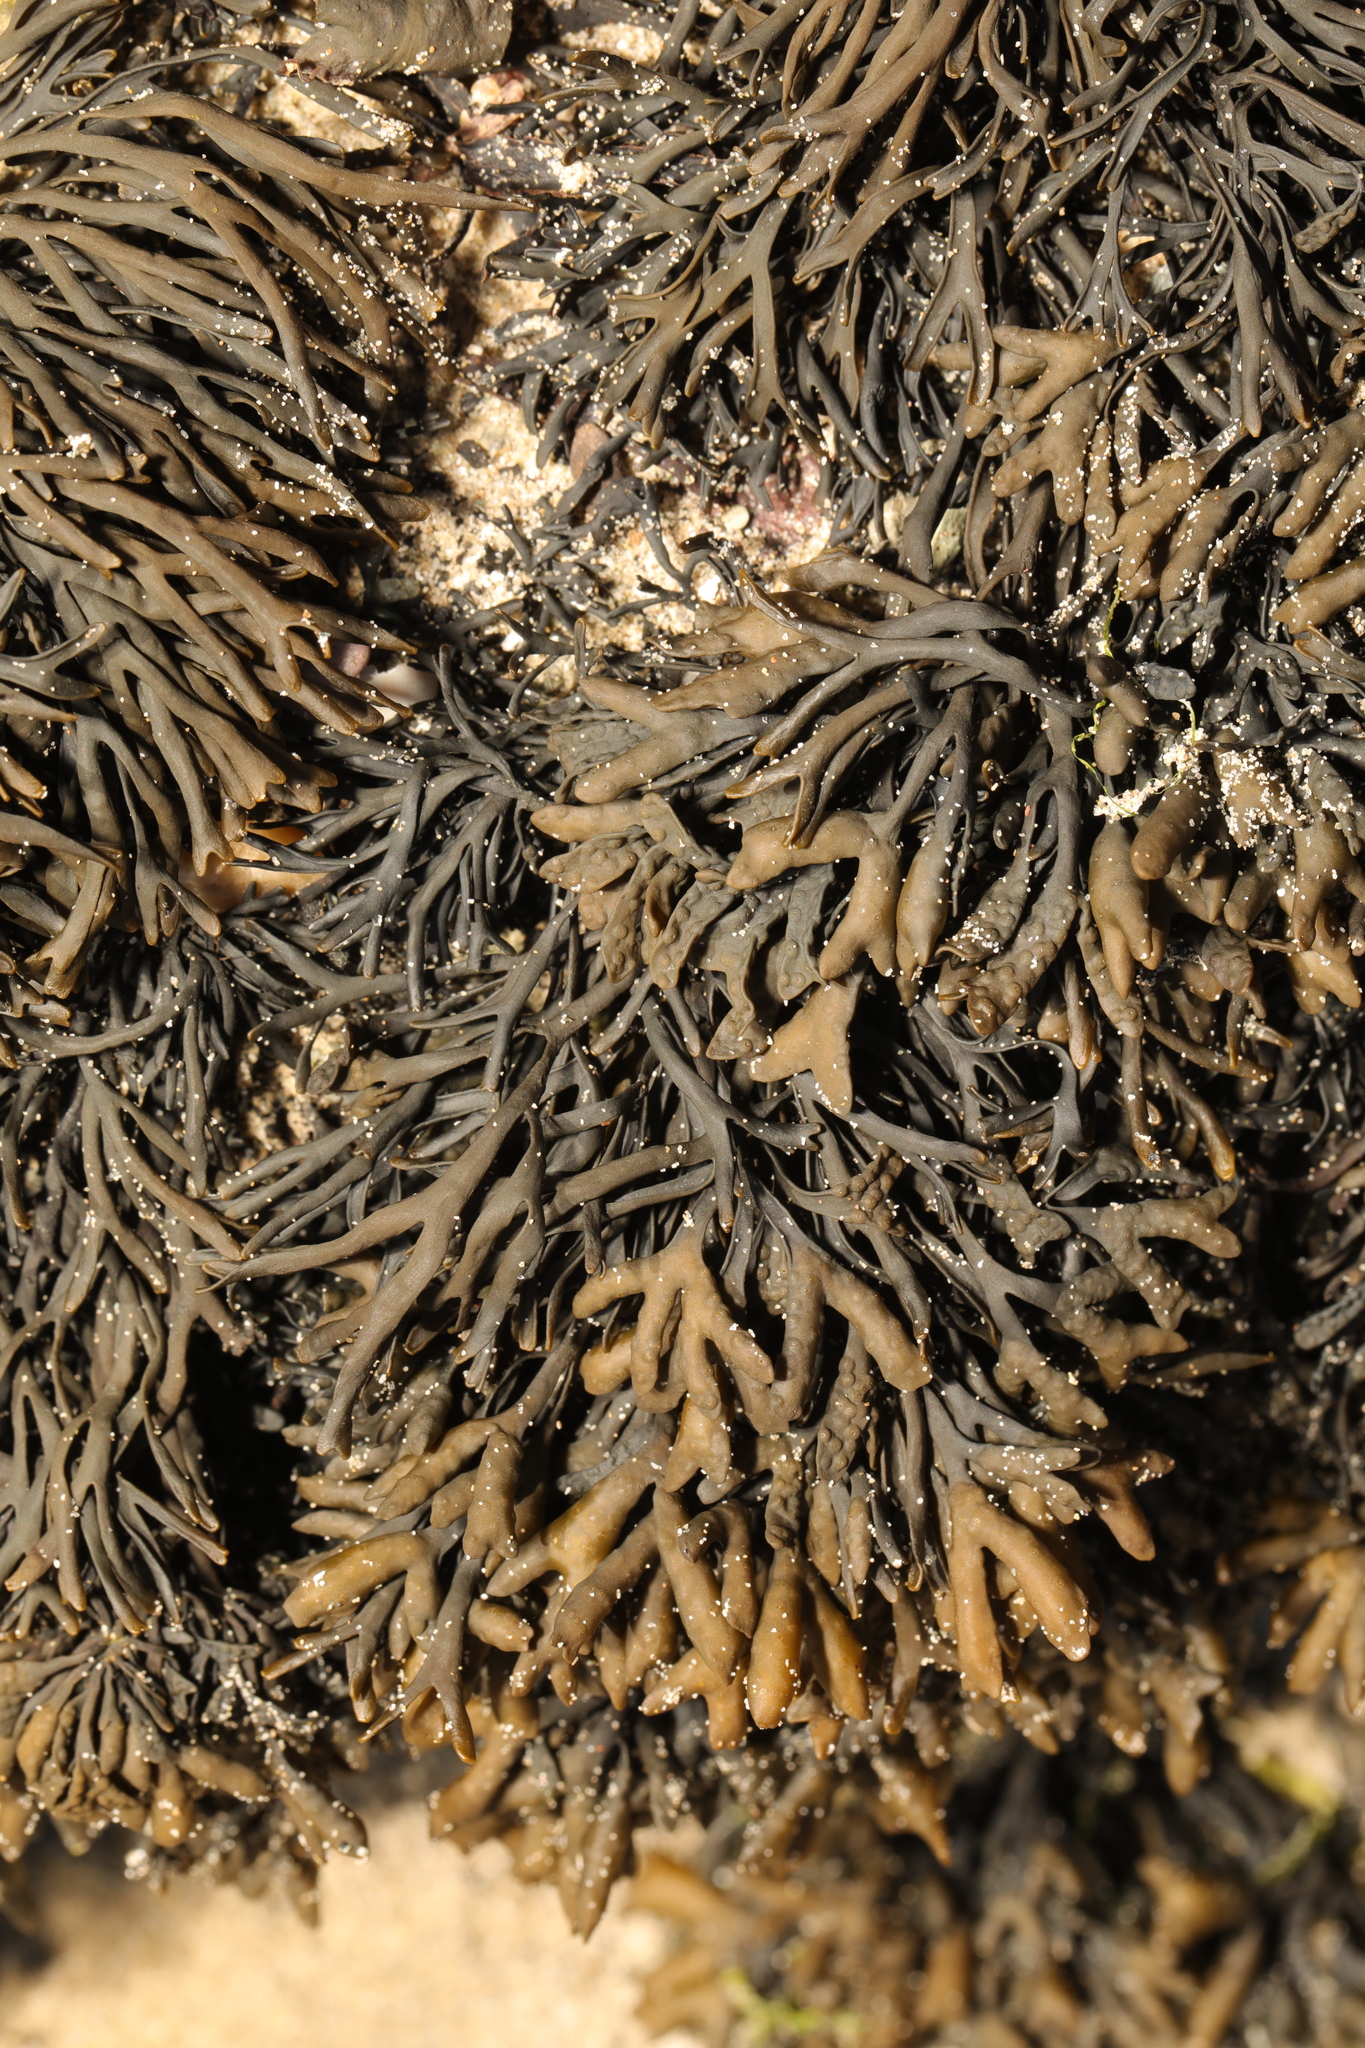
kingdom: Chromista
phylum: Ochrophyta
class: Phaeophyceae
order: Fucales
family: Fucaceae
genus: Pelvetia
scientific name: Pelvetia canaliculata
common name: Channelled wrack
